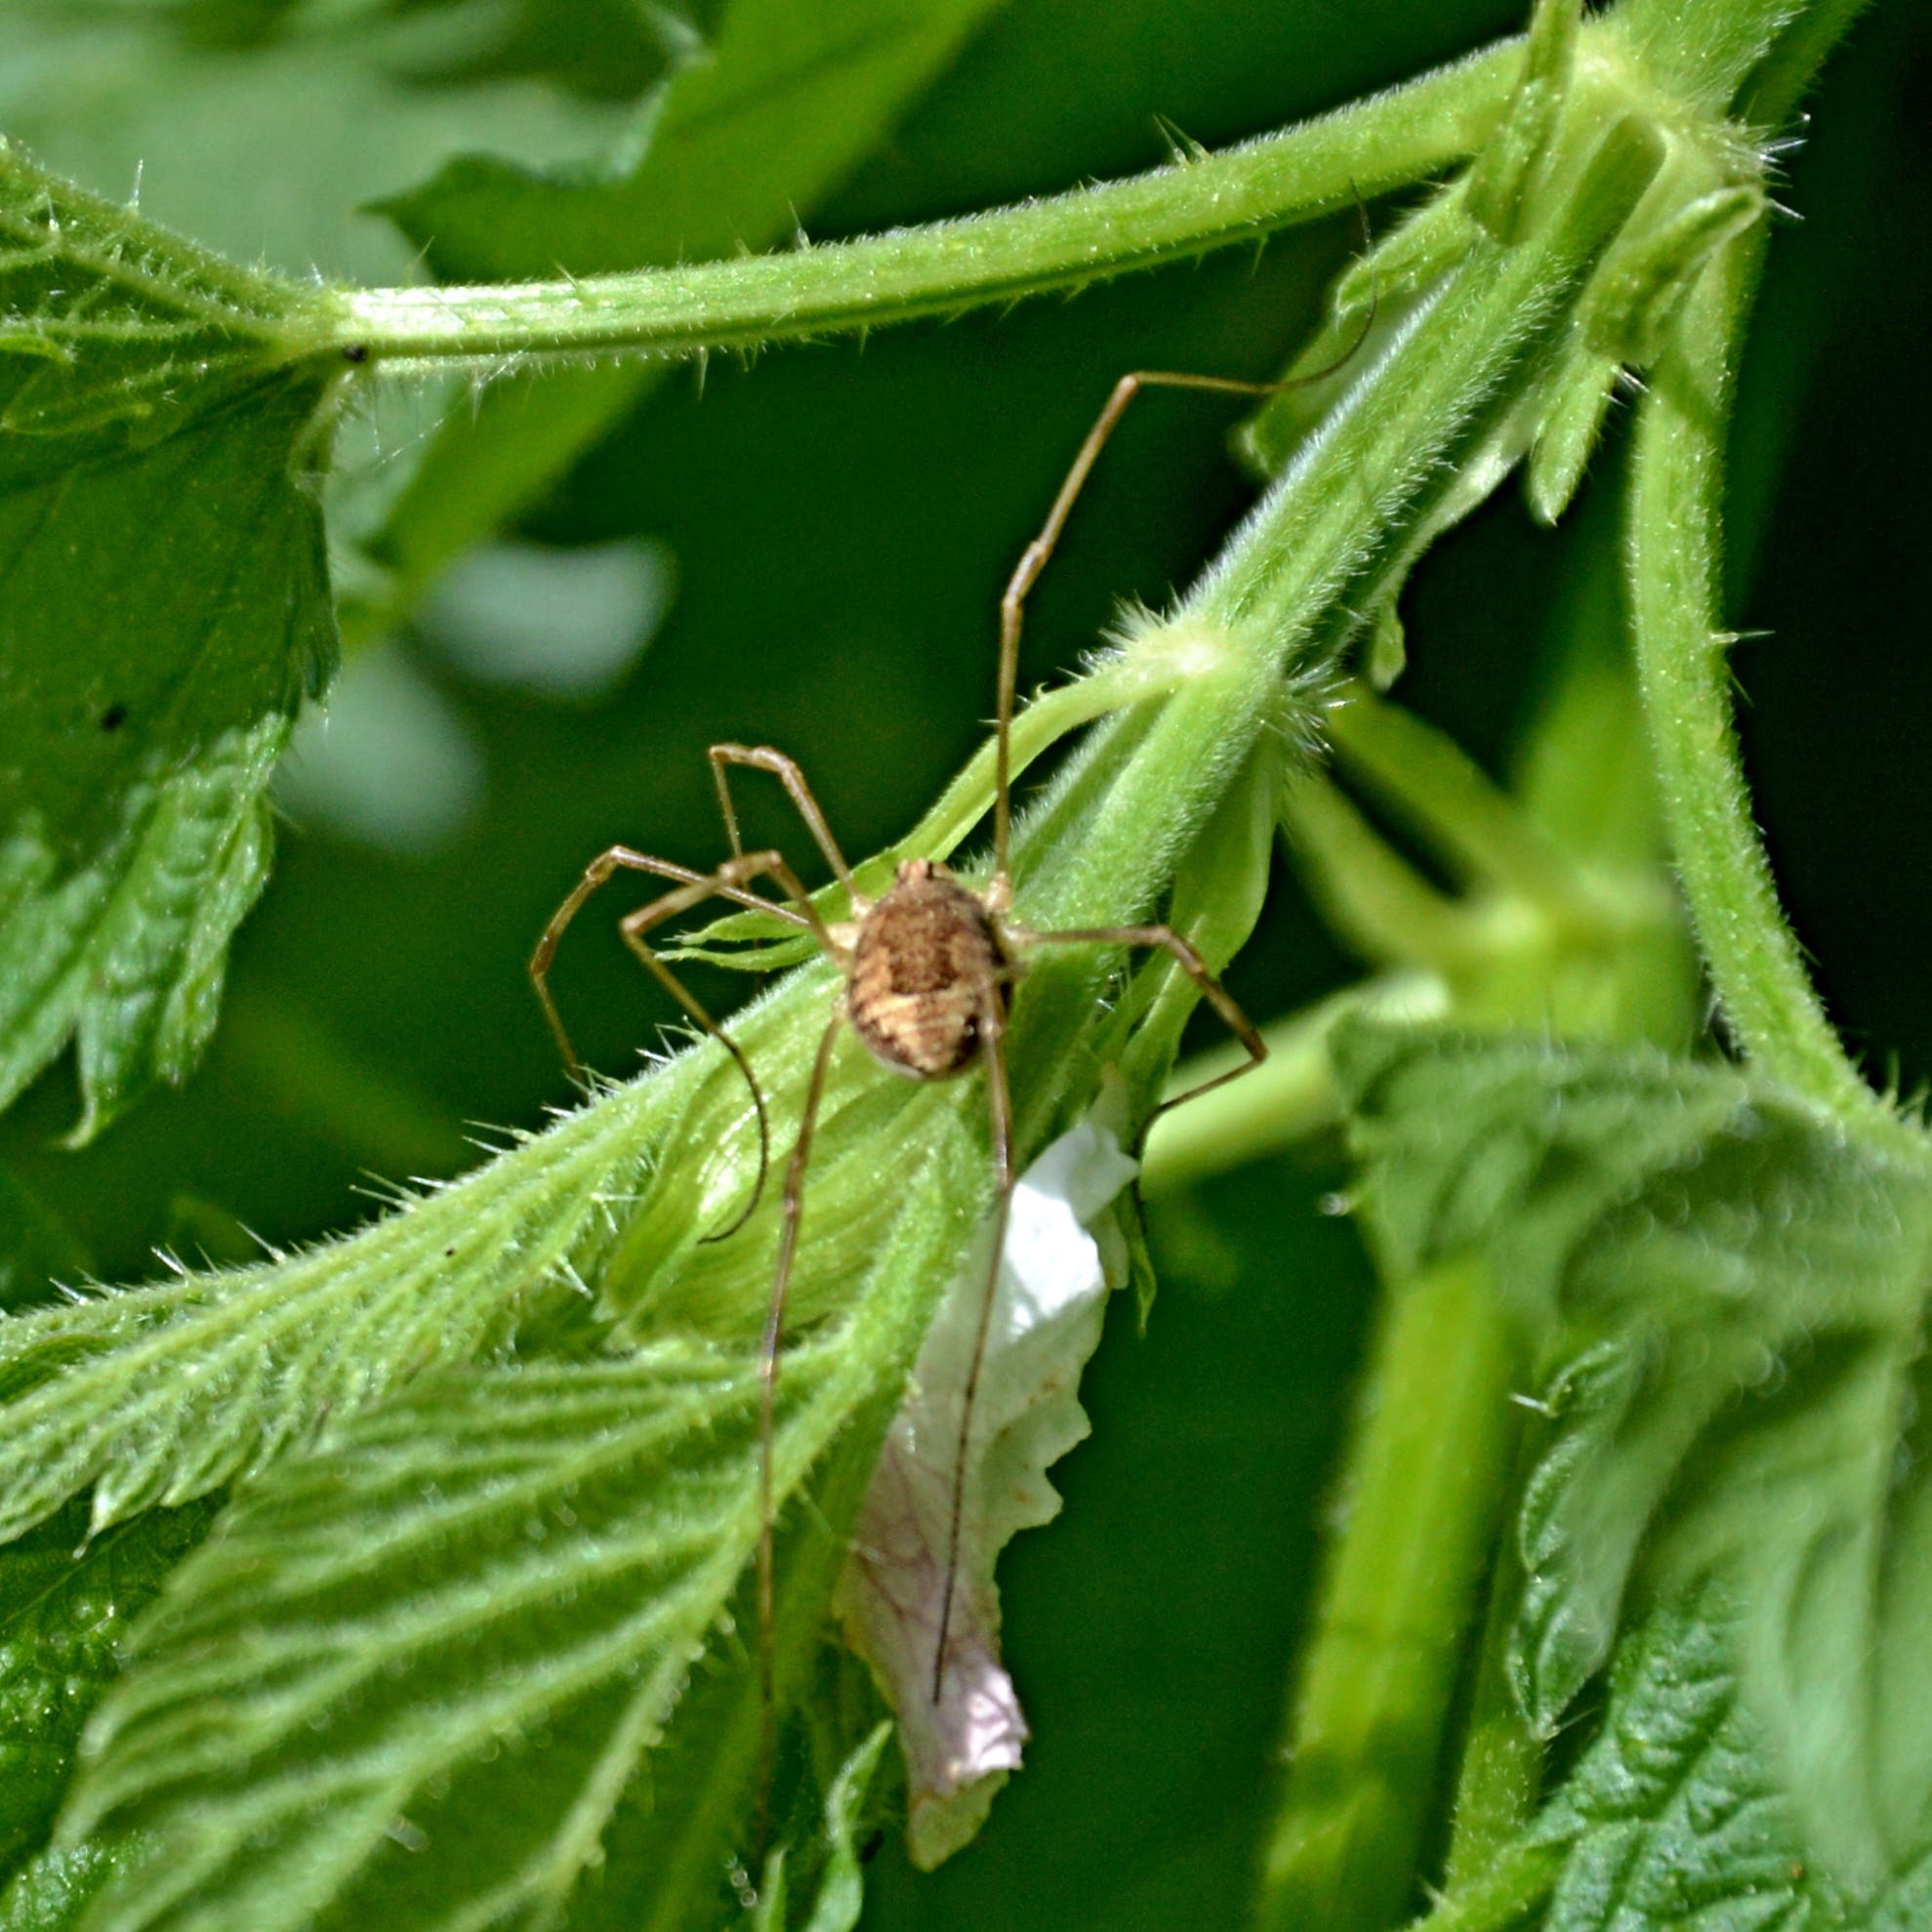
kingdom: Animalia
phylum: Arthropoda
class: Arachnida
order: Opiliones
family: Phalangiidae
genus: Rilaena
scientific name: Rilaena triangularis
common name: Spring harvestman
